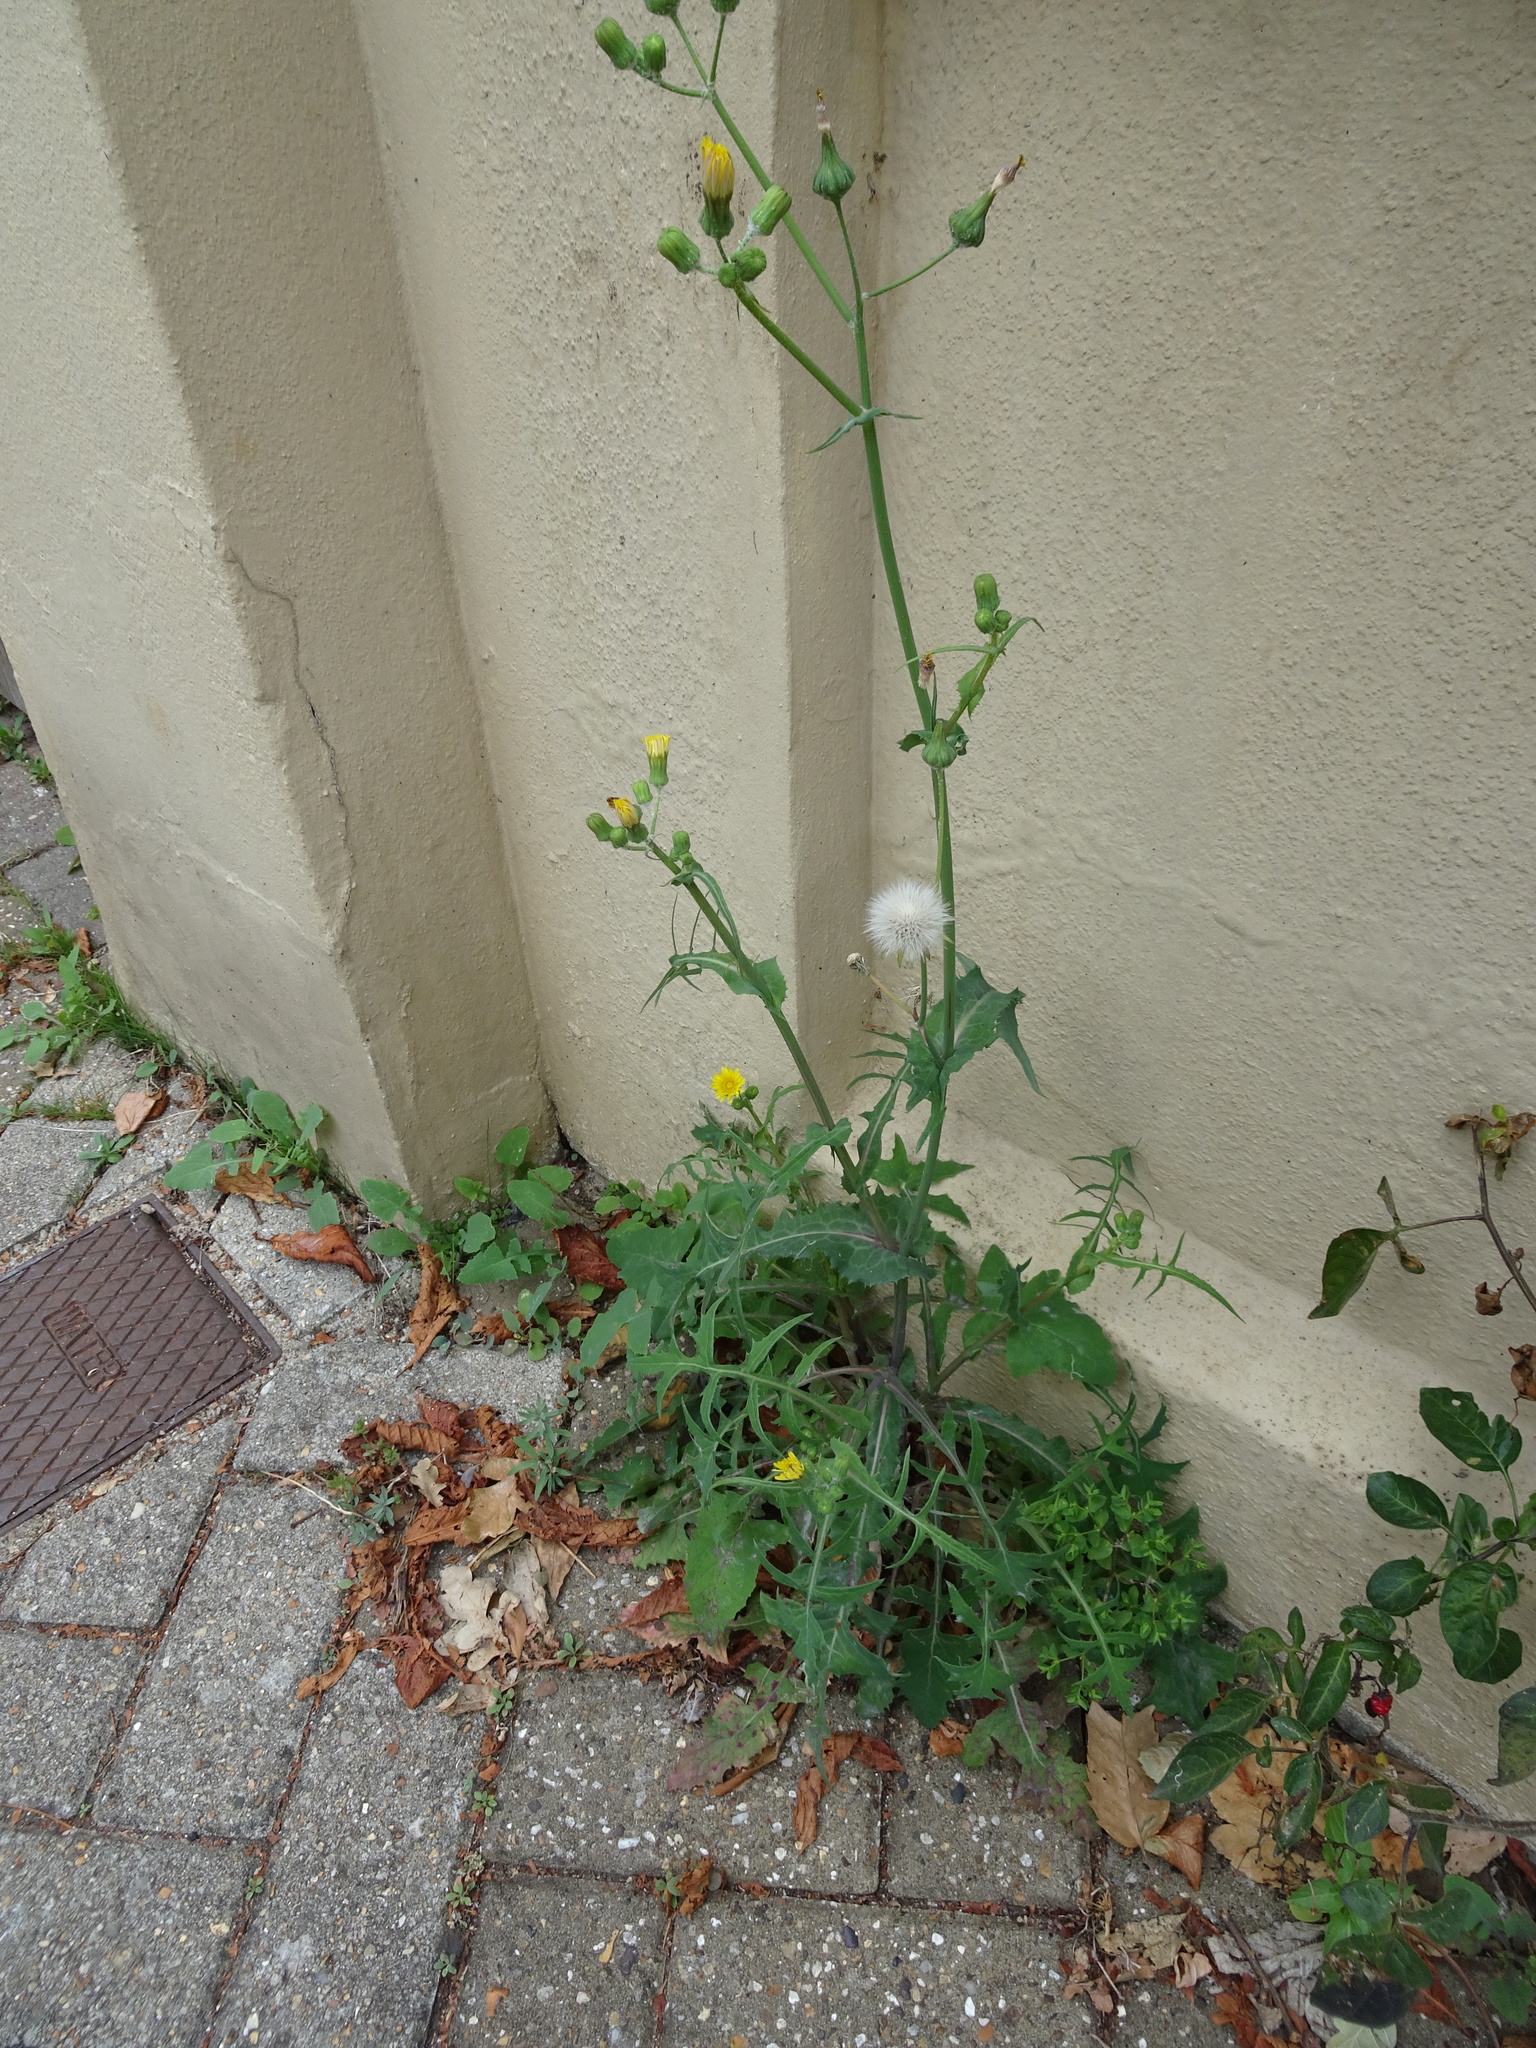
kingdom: Plantae
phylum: Tracheophyta
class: Magnoliopsida
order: Asterales
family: Asteraceae
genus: Sonchus
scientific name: Sonchus oleraceus
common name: Common sowthistle
